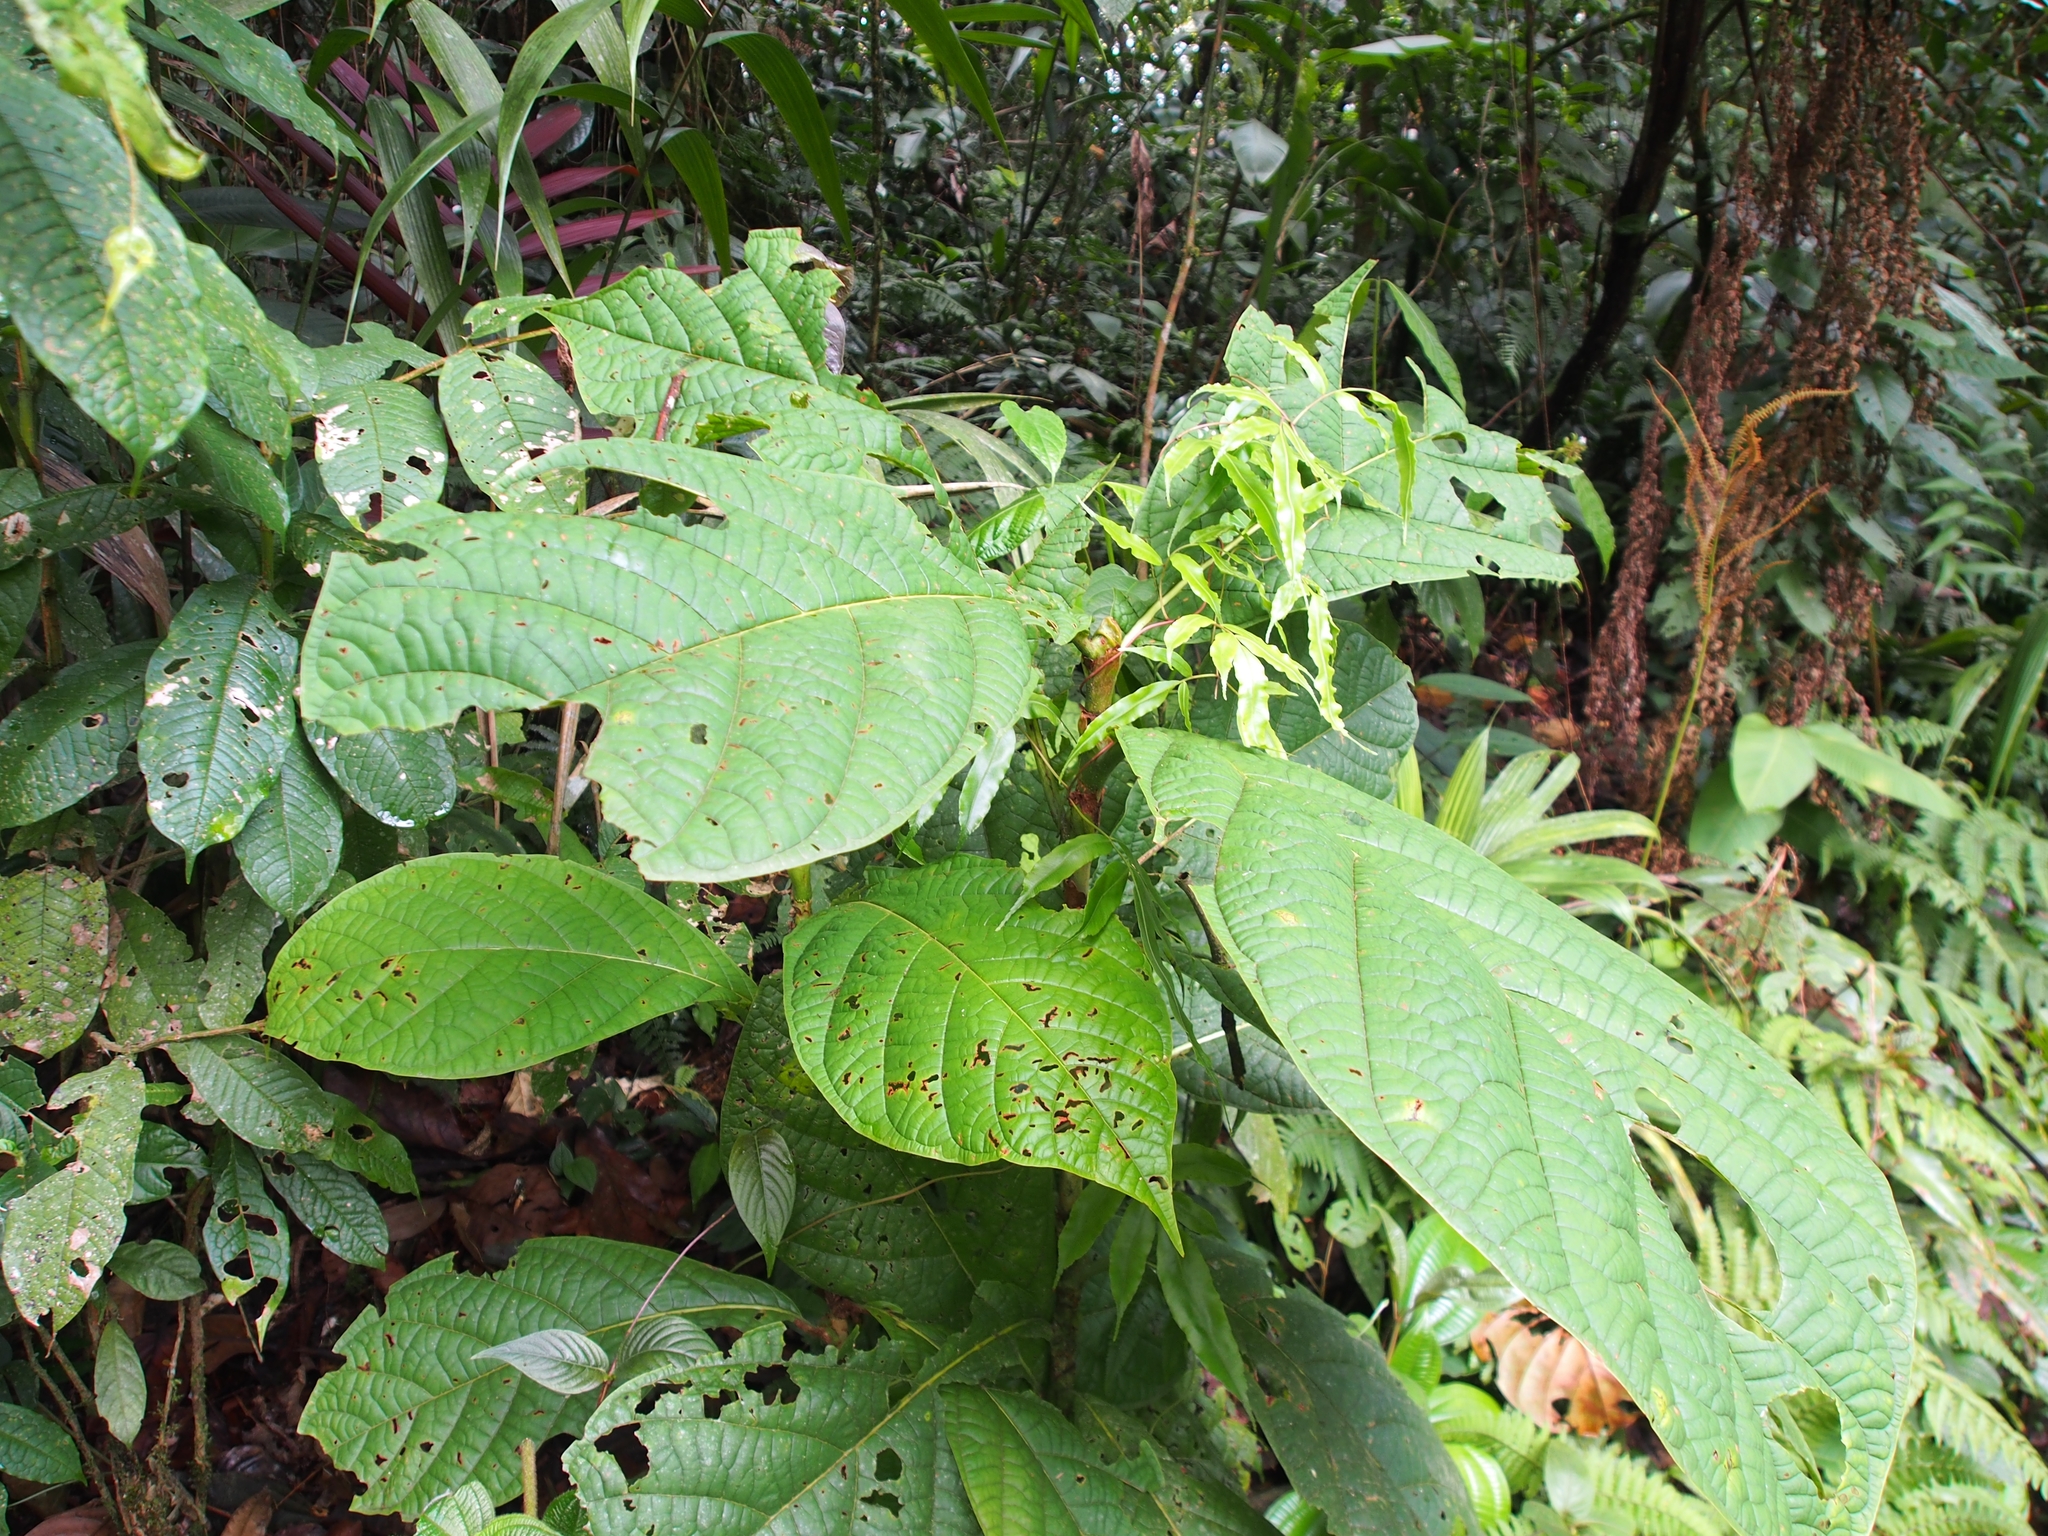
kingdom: Plantae
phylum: Tracheophyta
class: Magnoliopsida
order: Caryophyllales
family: Polygonaceae
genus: Coccoloba
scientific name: Coccoloba tuerckheimii
